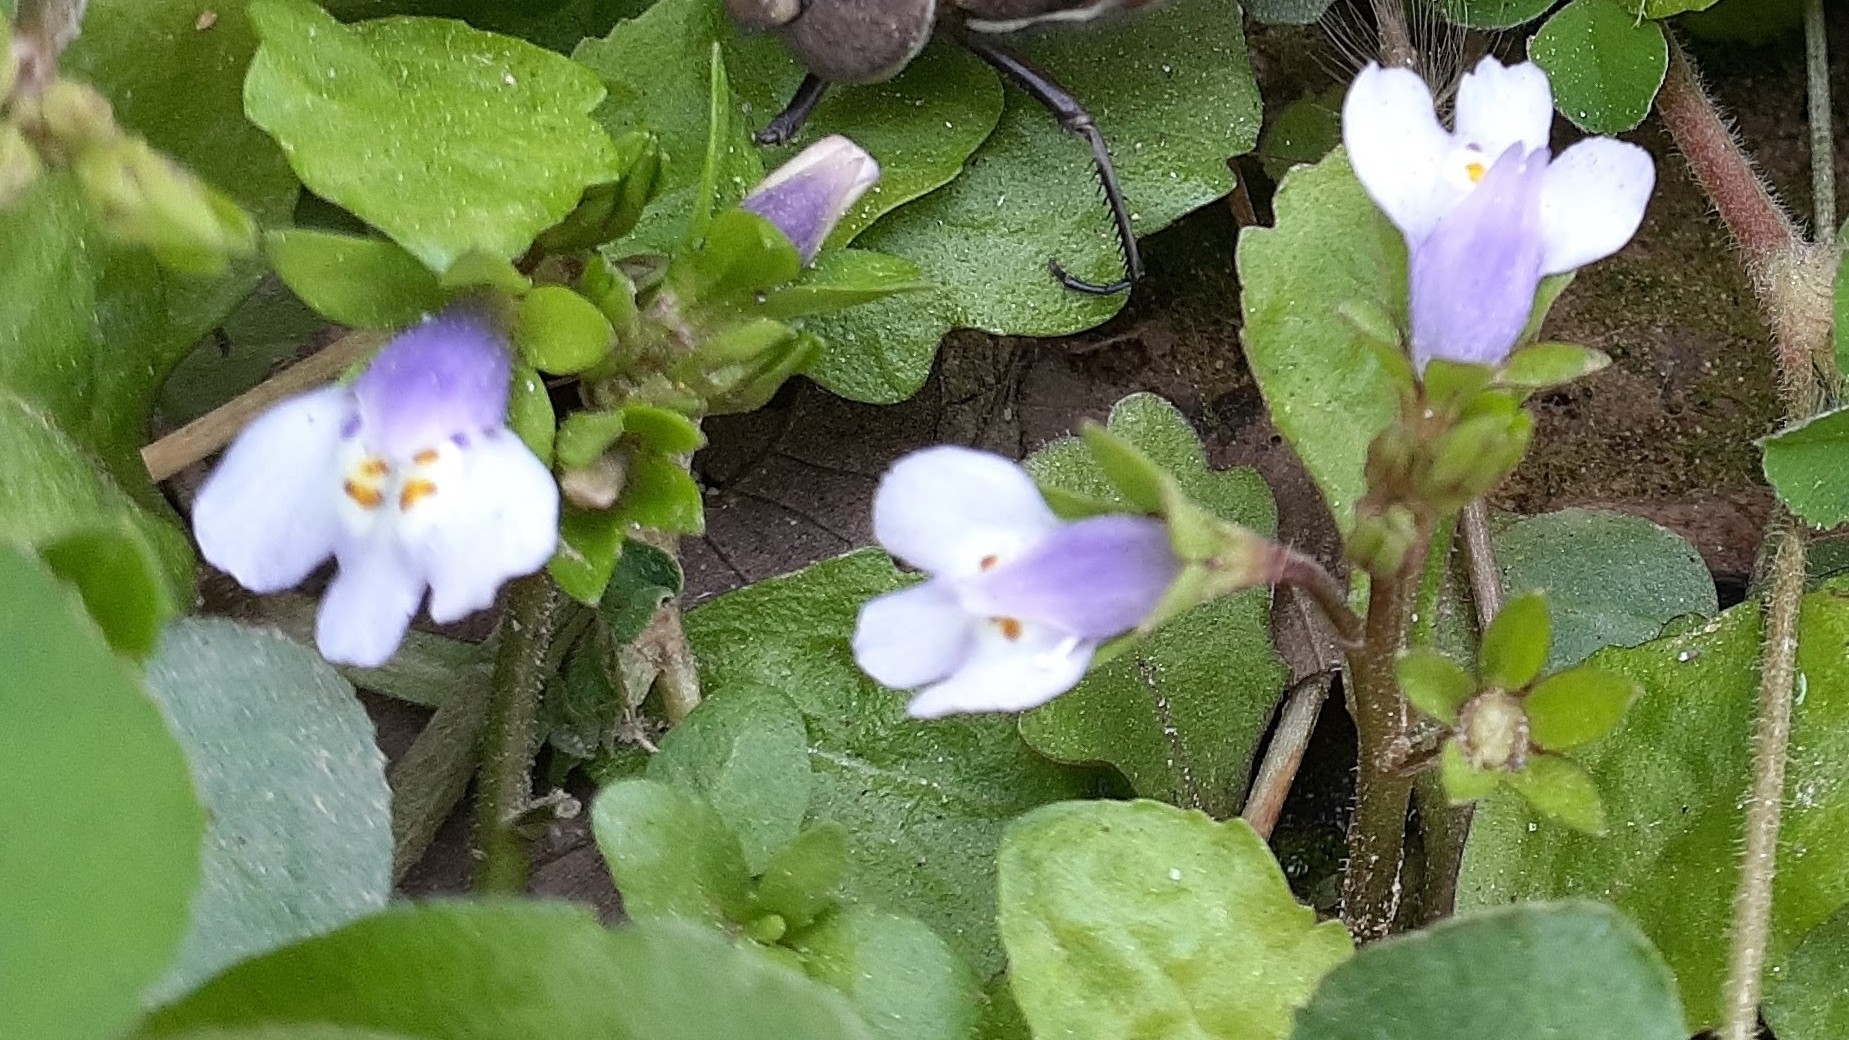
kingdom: Plantae
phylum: Tracheophyta
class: Magnoliopsida
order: Lamiales
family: Mazaceae
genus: Mazus
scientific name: Mazus pumilus
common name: Japanese mazus
